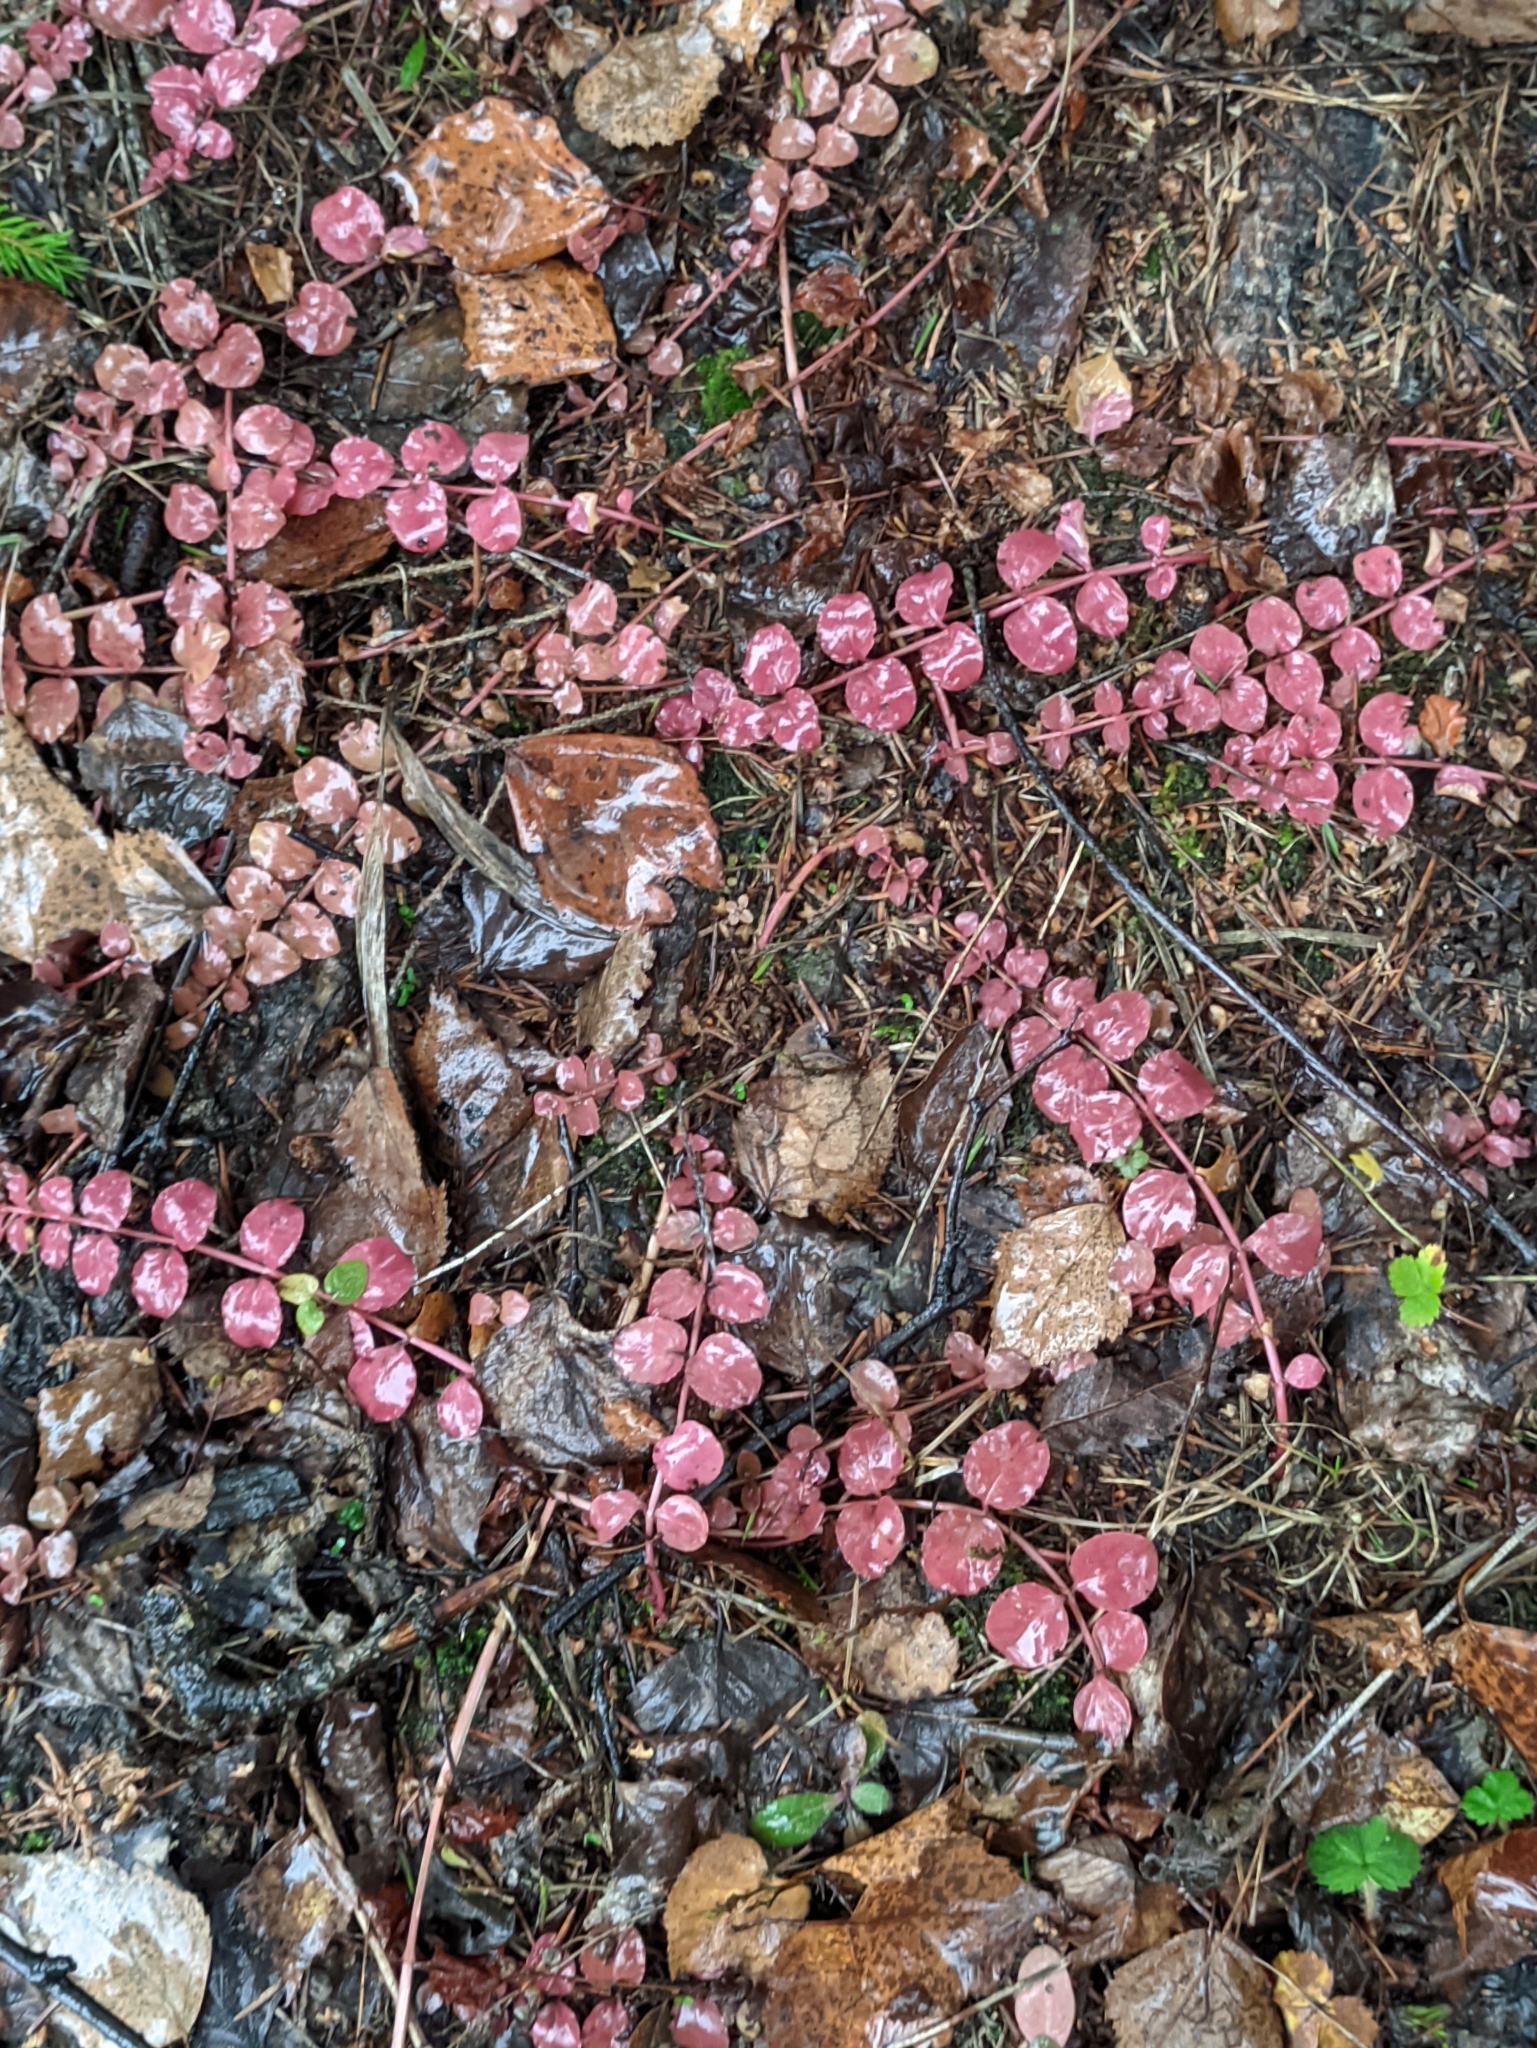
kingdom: Plantae
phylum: Tracheophyta
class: Magnoliopsida
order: Ericales
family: Primulaceae
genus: Lysimachia
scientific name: Lysimachia nummularia
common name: Moneywort
